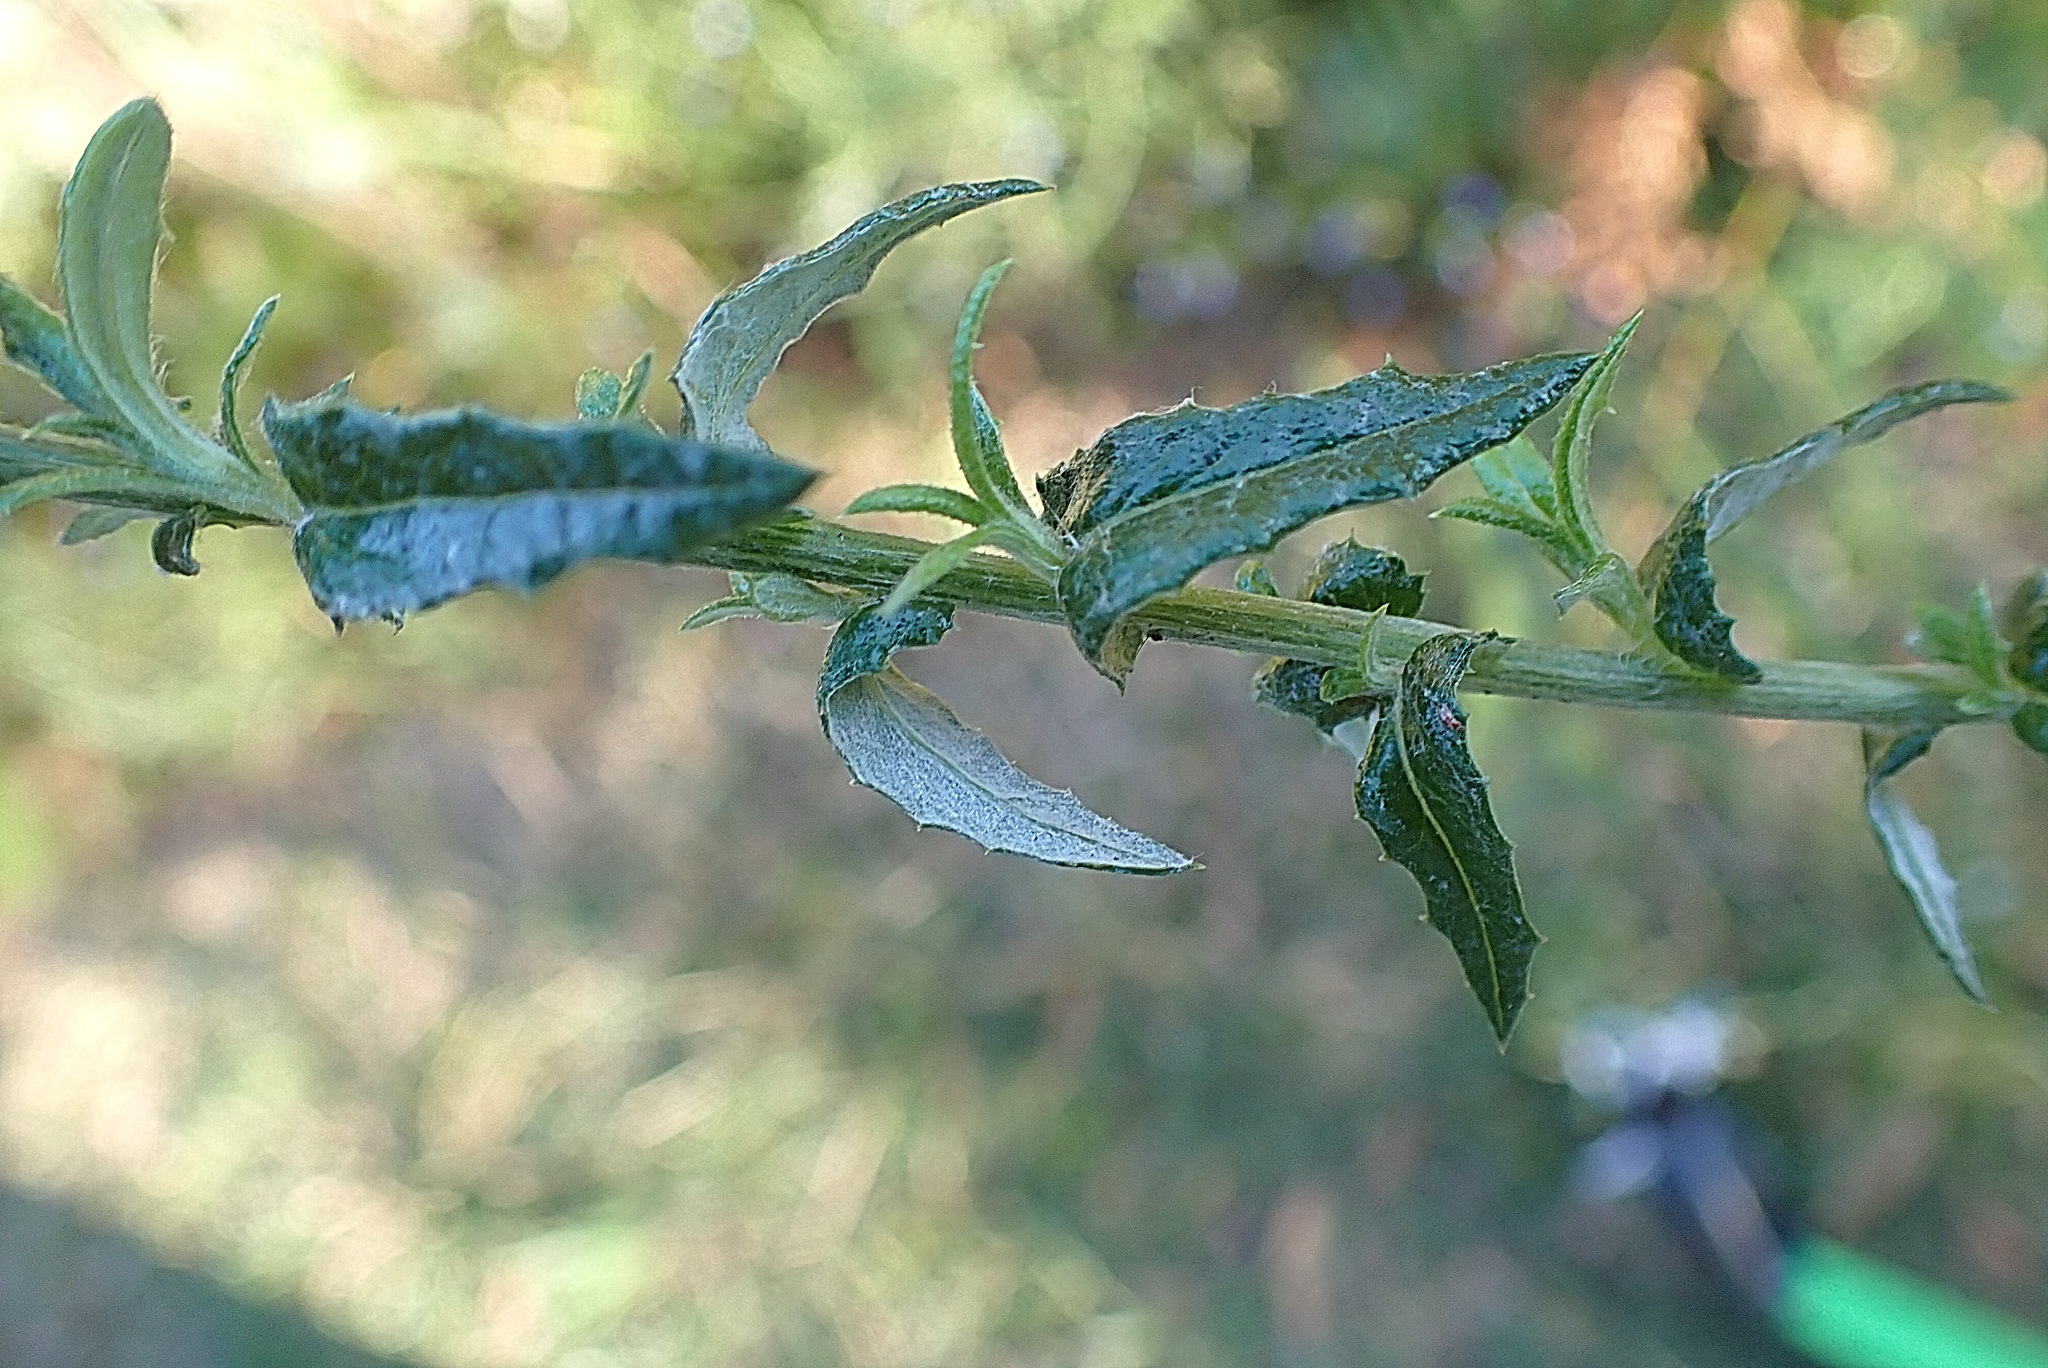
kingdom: Plantae
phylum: Tracheophyta
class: Magnoliopsida
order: Asterales
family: Asteraceae
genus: Senecio
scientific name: Senecio ilicifolius
